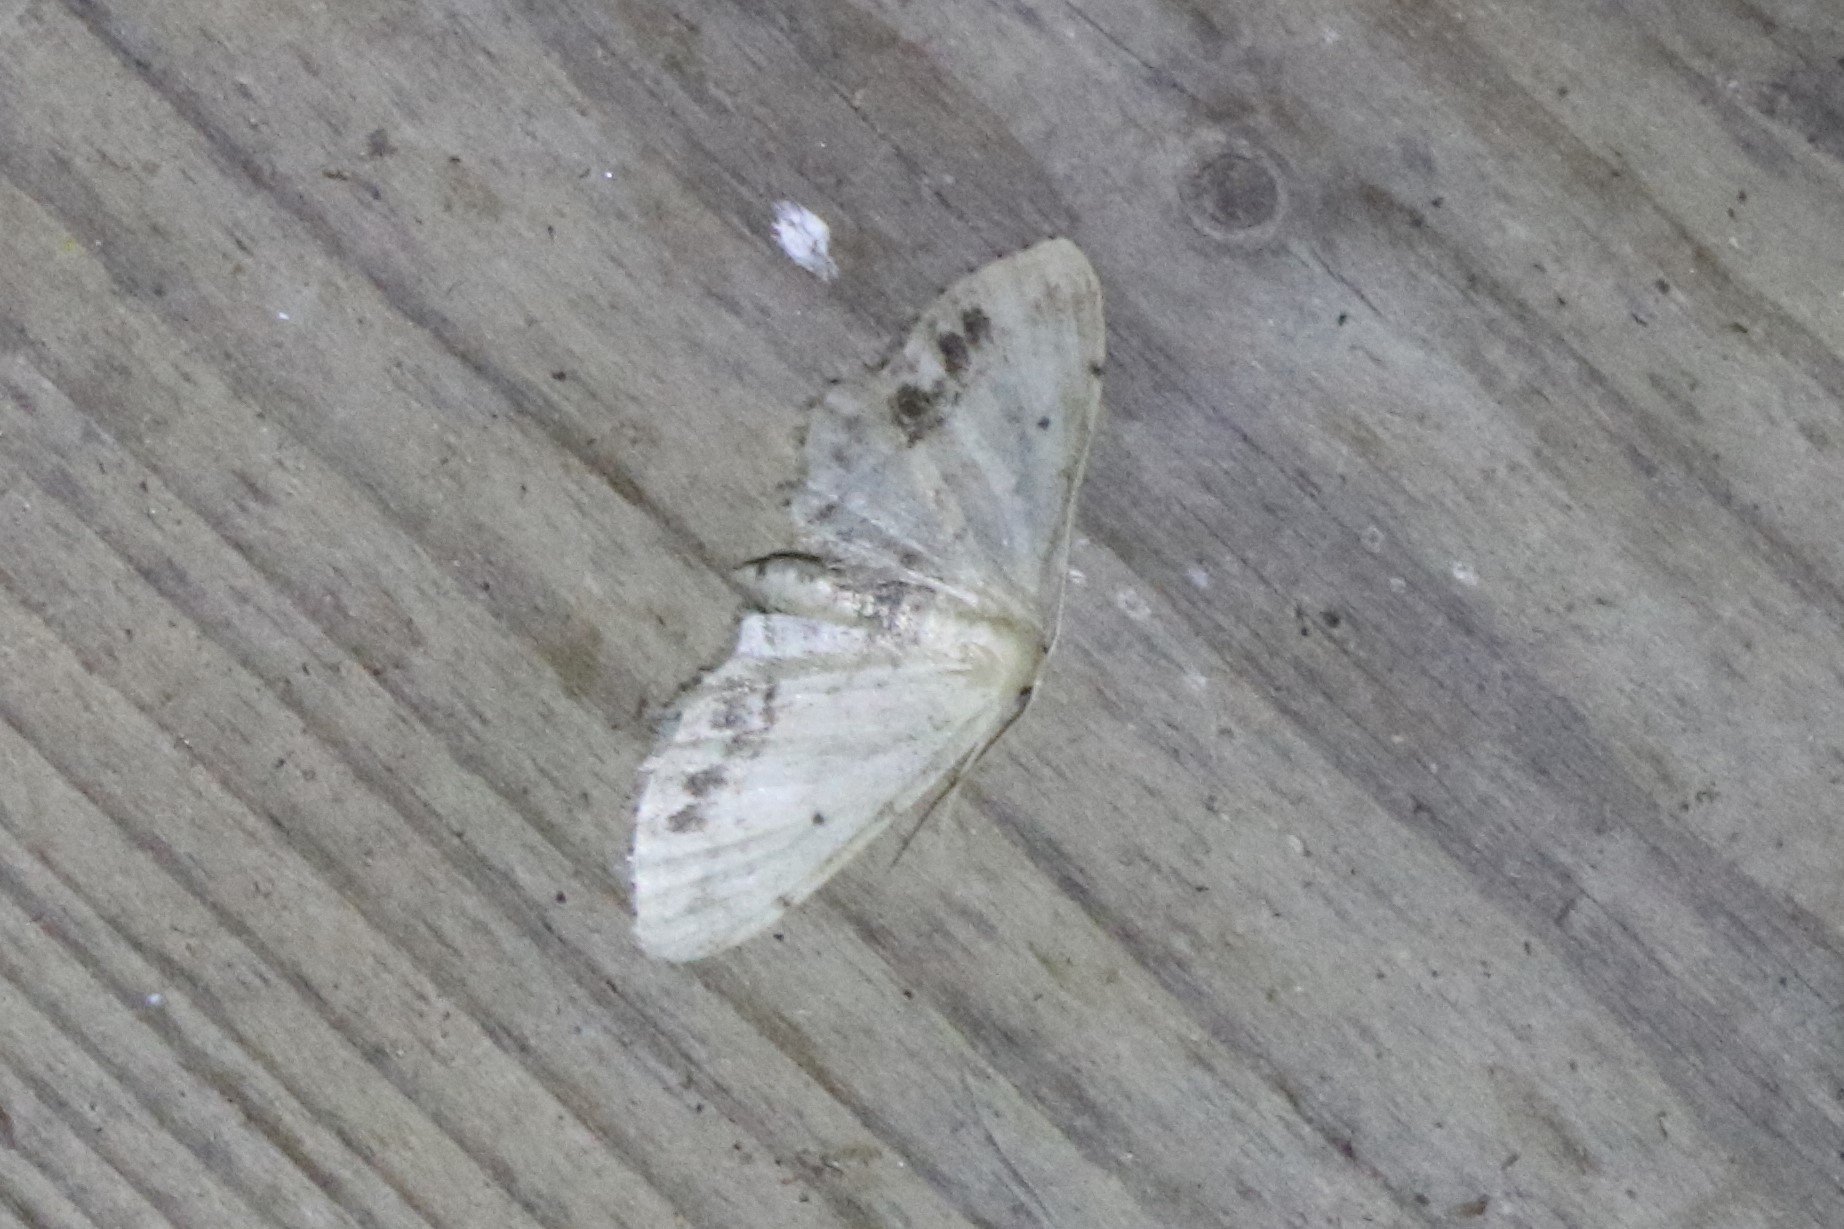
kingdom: Animalia
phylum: Arthropoda
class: Insecta
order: Lepidoptera
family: Geometridae
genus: Idaea
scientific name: Idaea dimidiata
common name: Single-dotted wave
